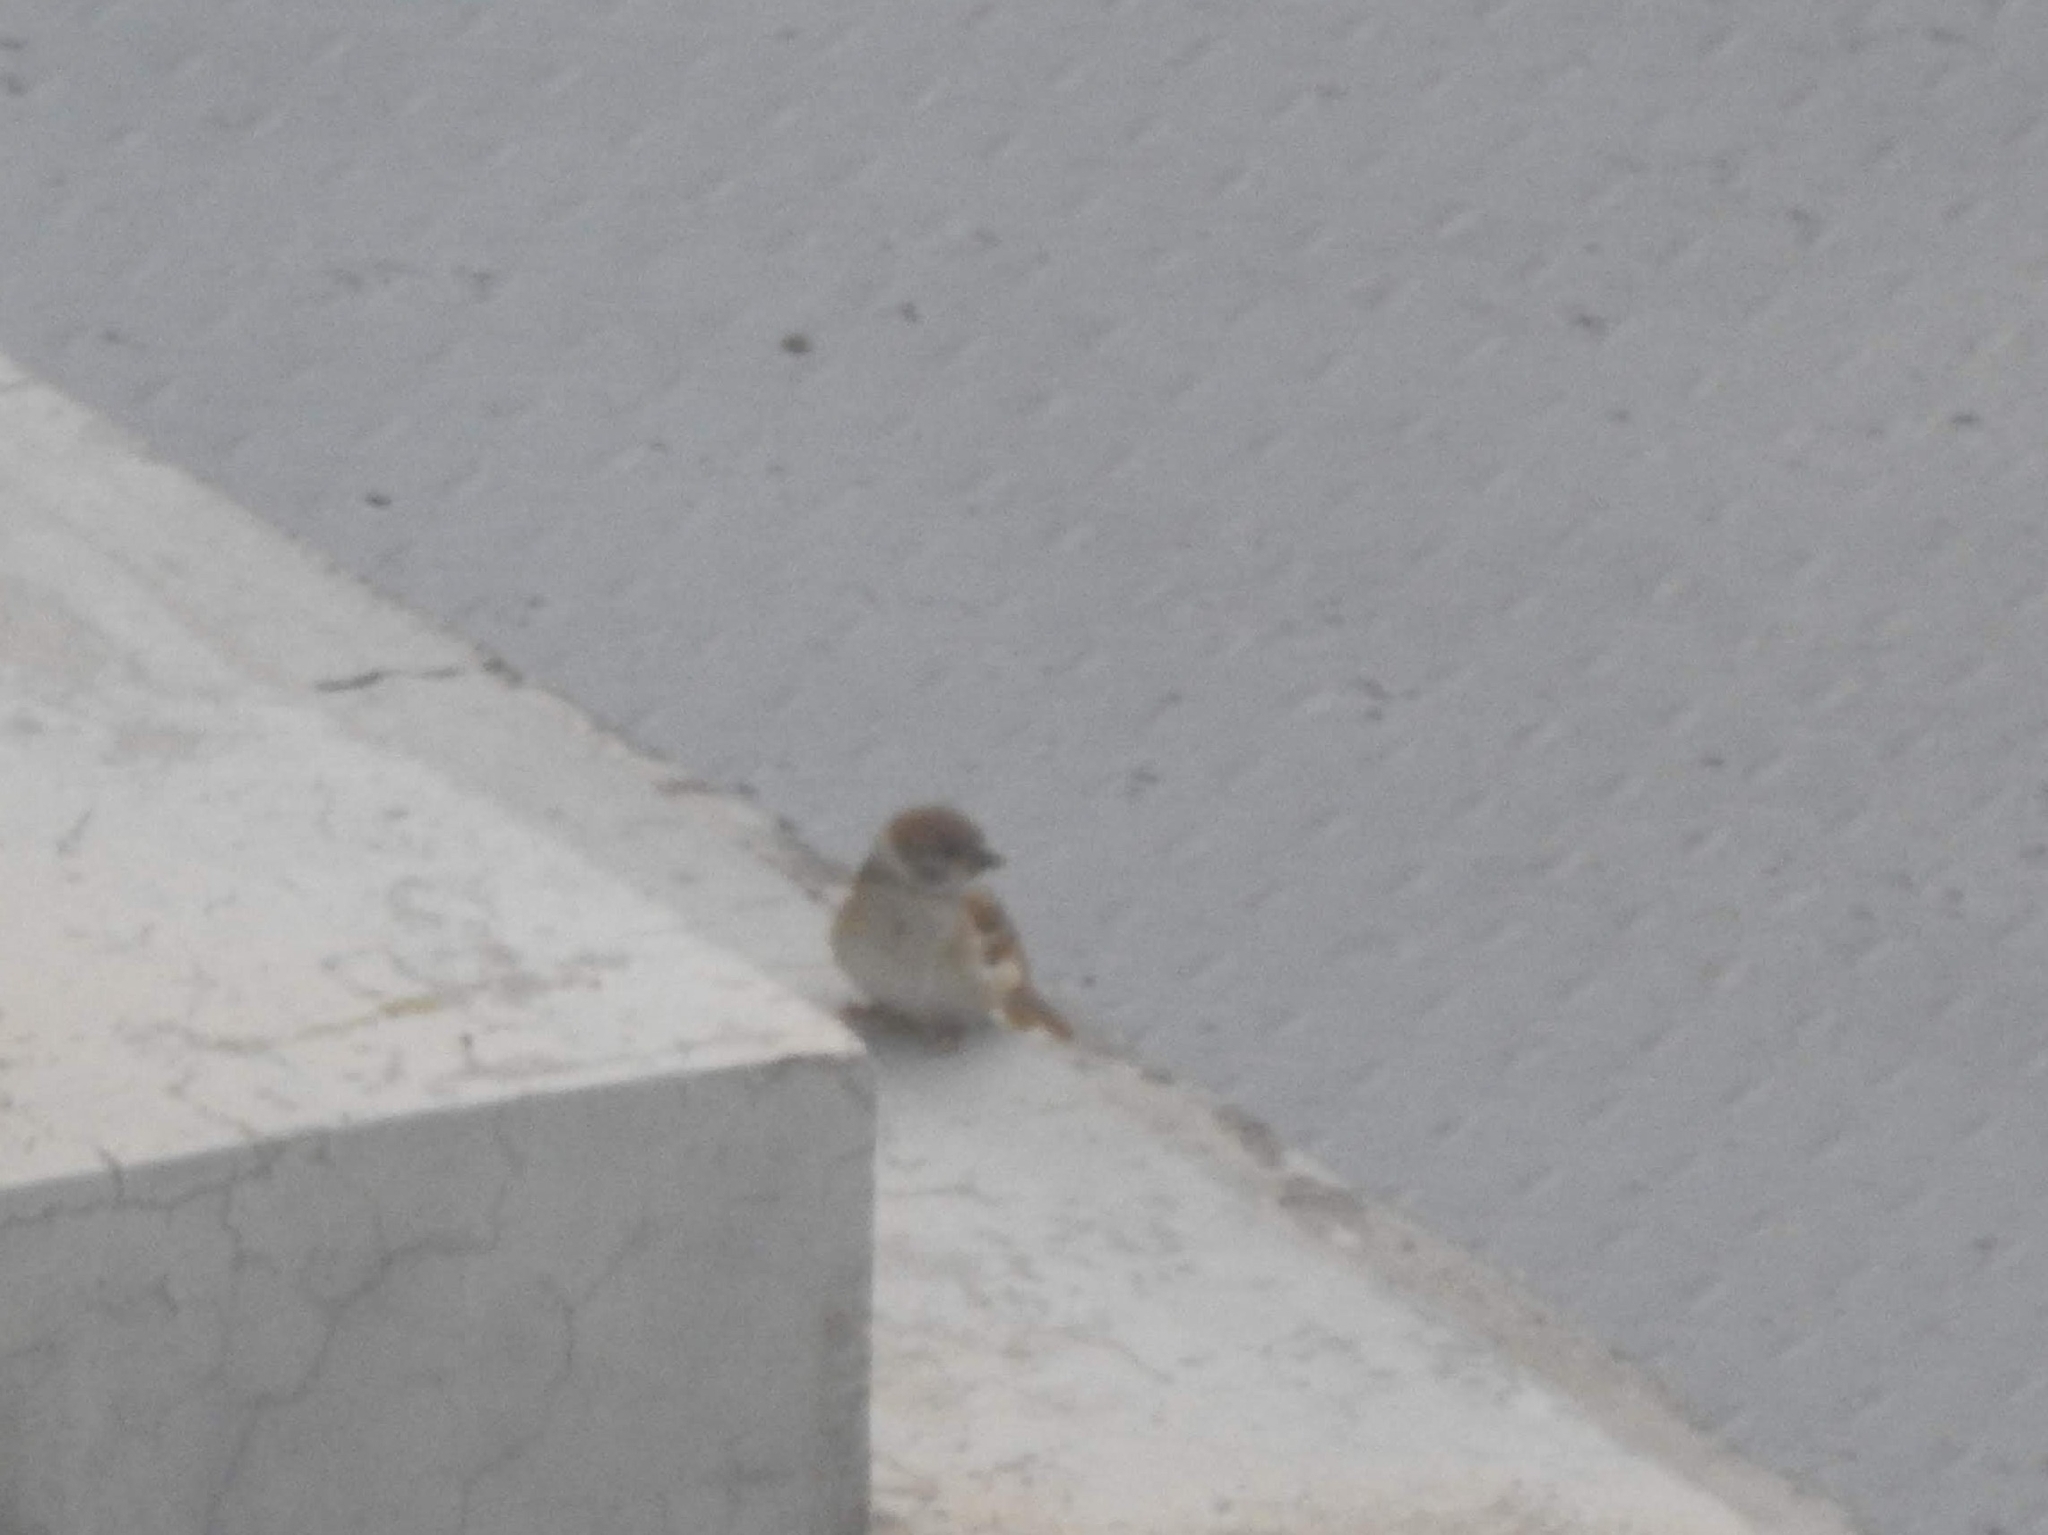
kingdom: Animalia
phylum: Chordata
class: Aves
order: Passeriformes
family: Passeridae
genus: Passer
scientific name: Passer montanus
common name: Eurasian tree sparrow
